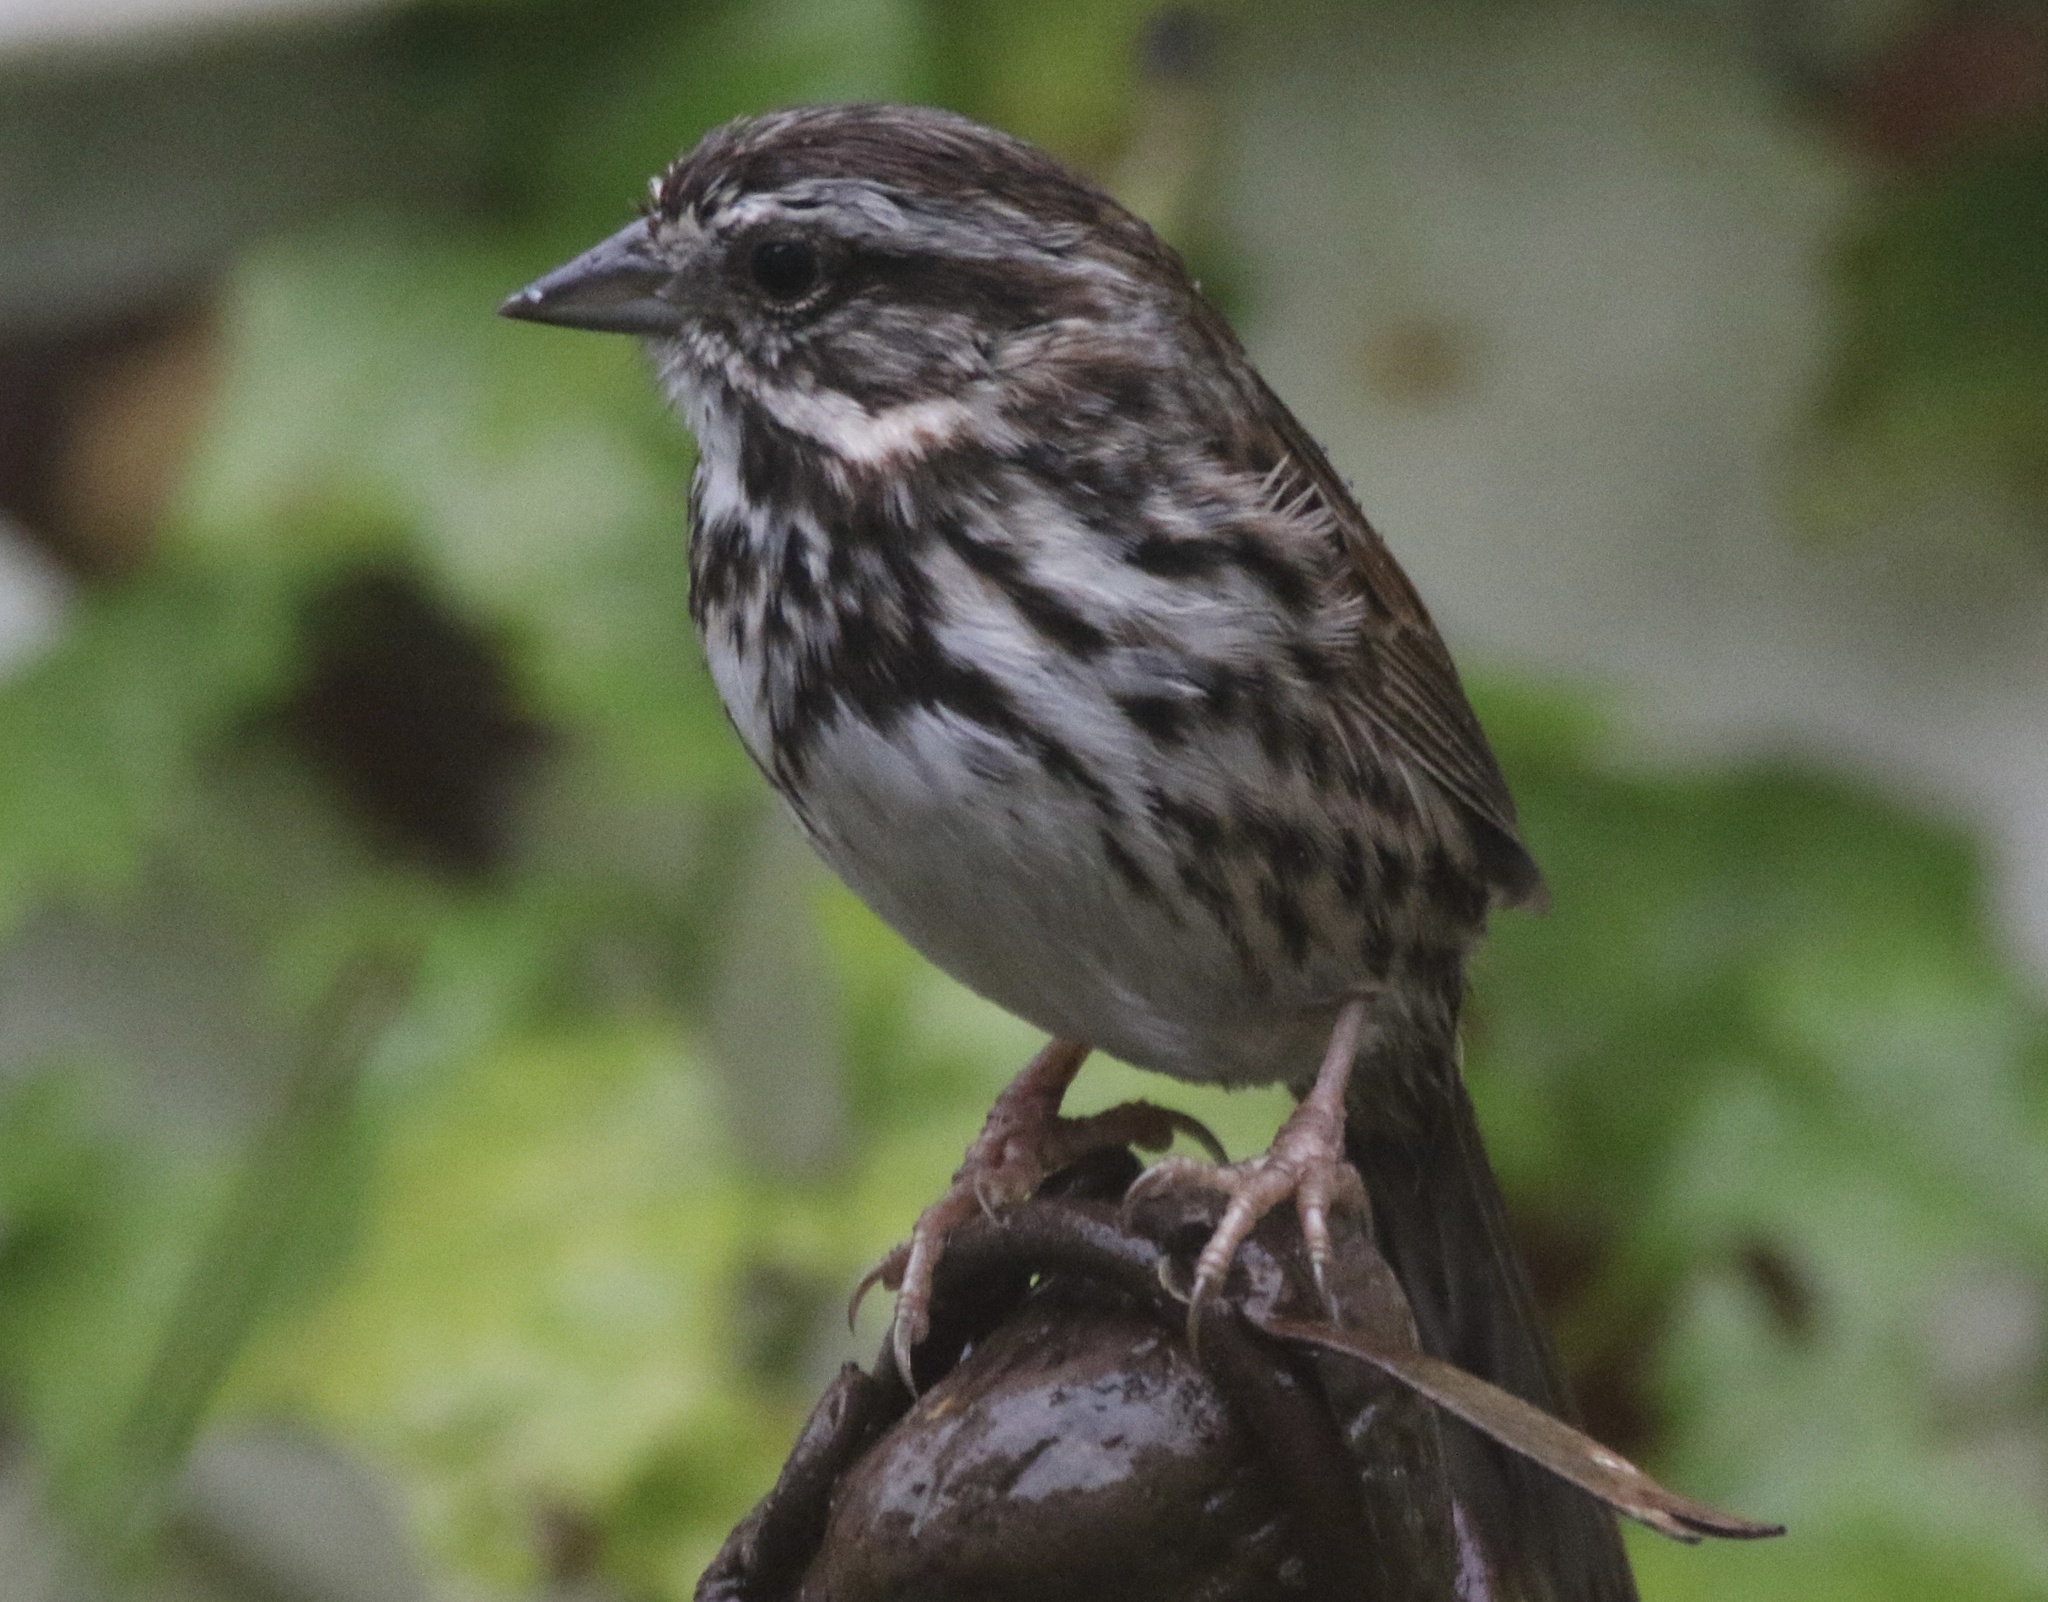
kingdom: Animalia
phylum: Chordata
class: Aves
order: Passeriformes
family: Passerellidae
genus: Melospiza
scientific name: Melospiza melodia
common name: Song sparrow
